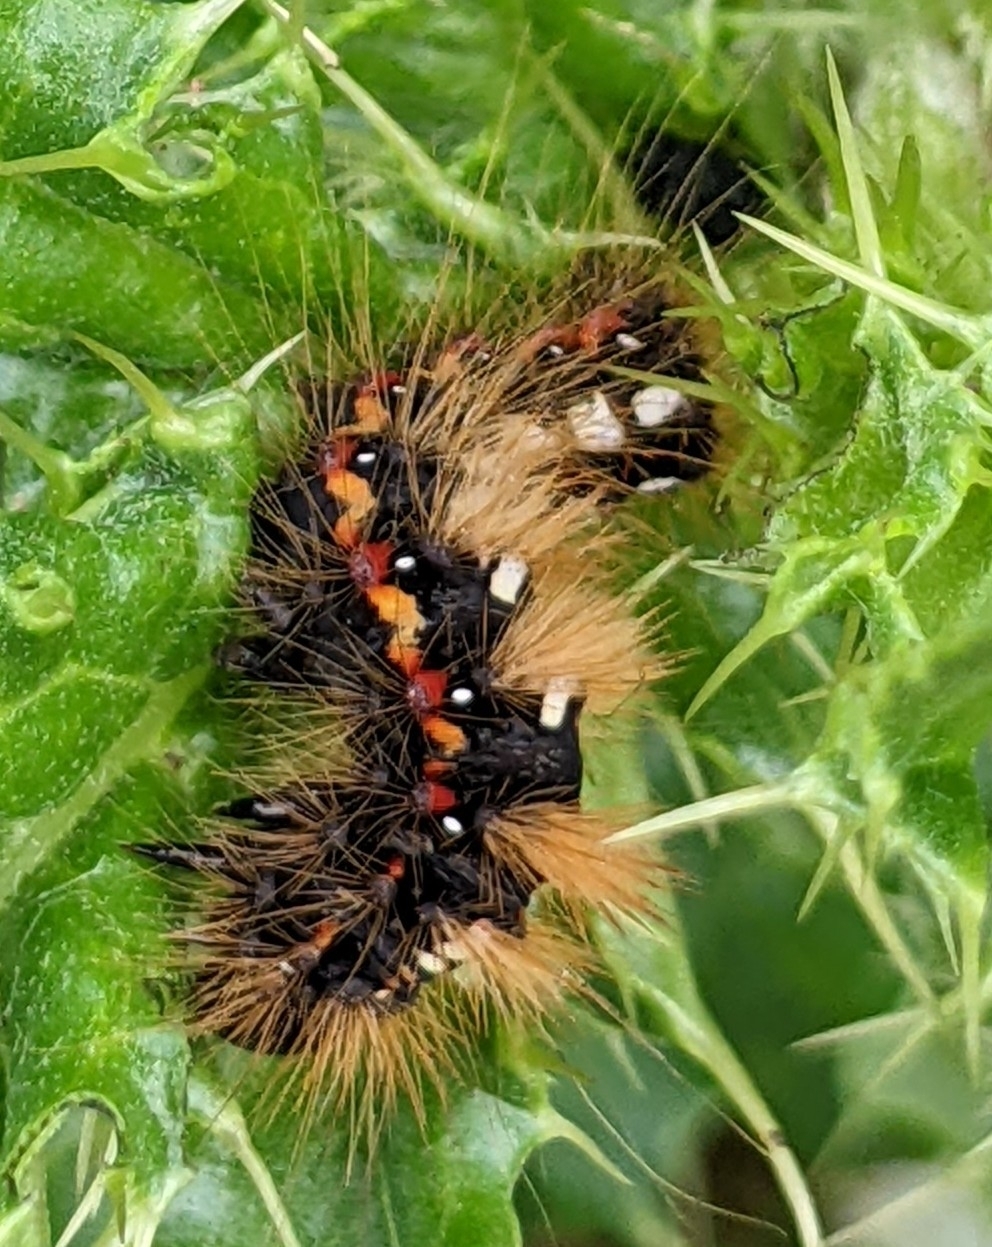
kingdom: Animalia
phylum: Arthropoda
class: Insecta
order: Lepidoptera
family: Noctuidae
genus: Acronicta
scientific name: Acronicta rumicis
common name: Knot grass
